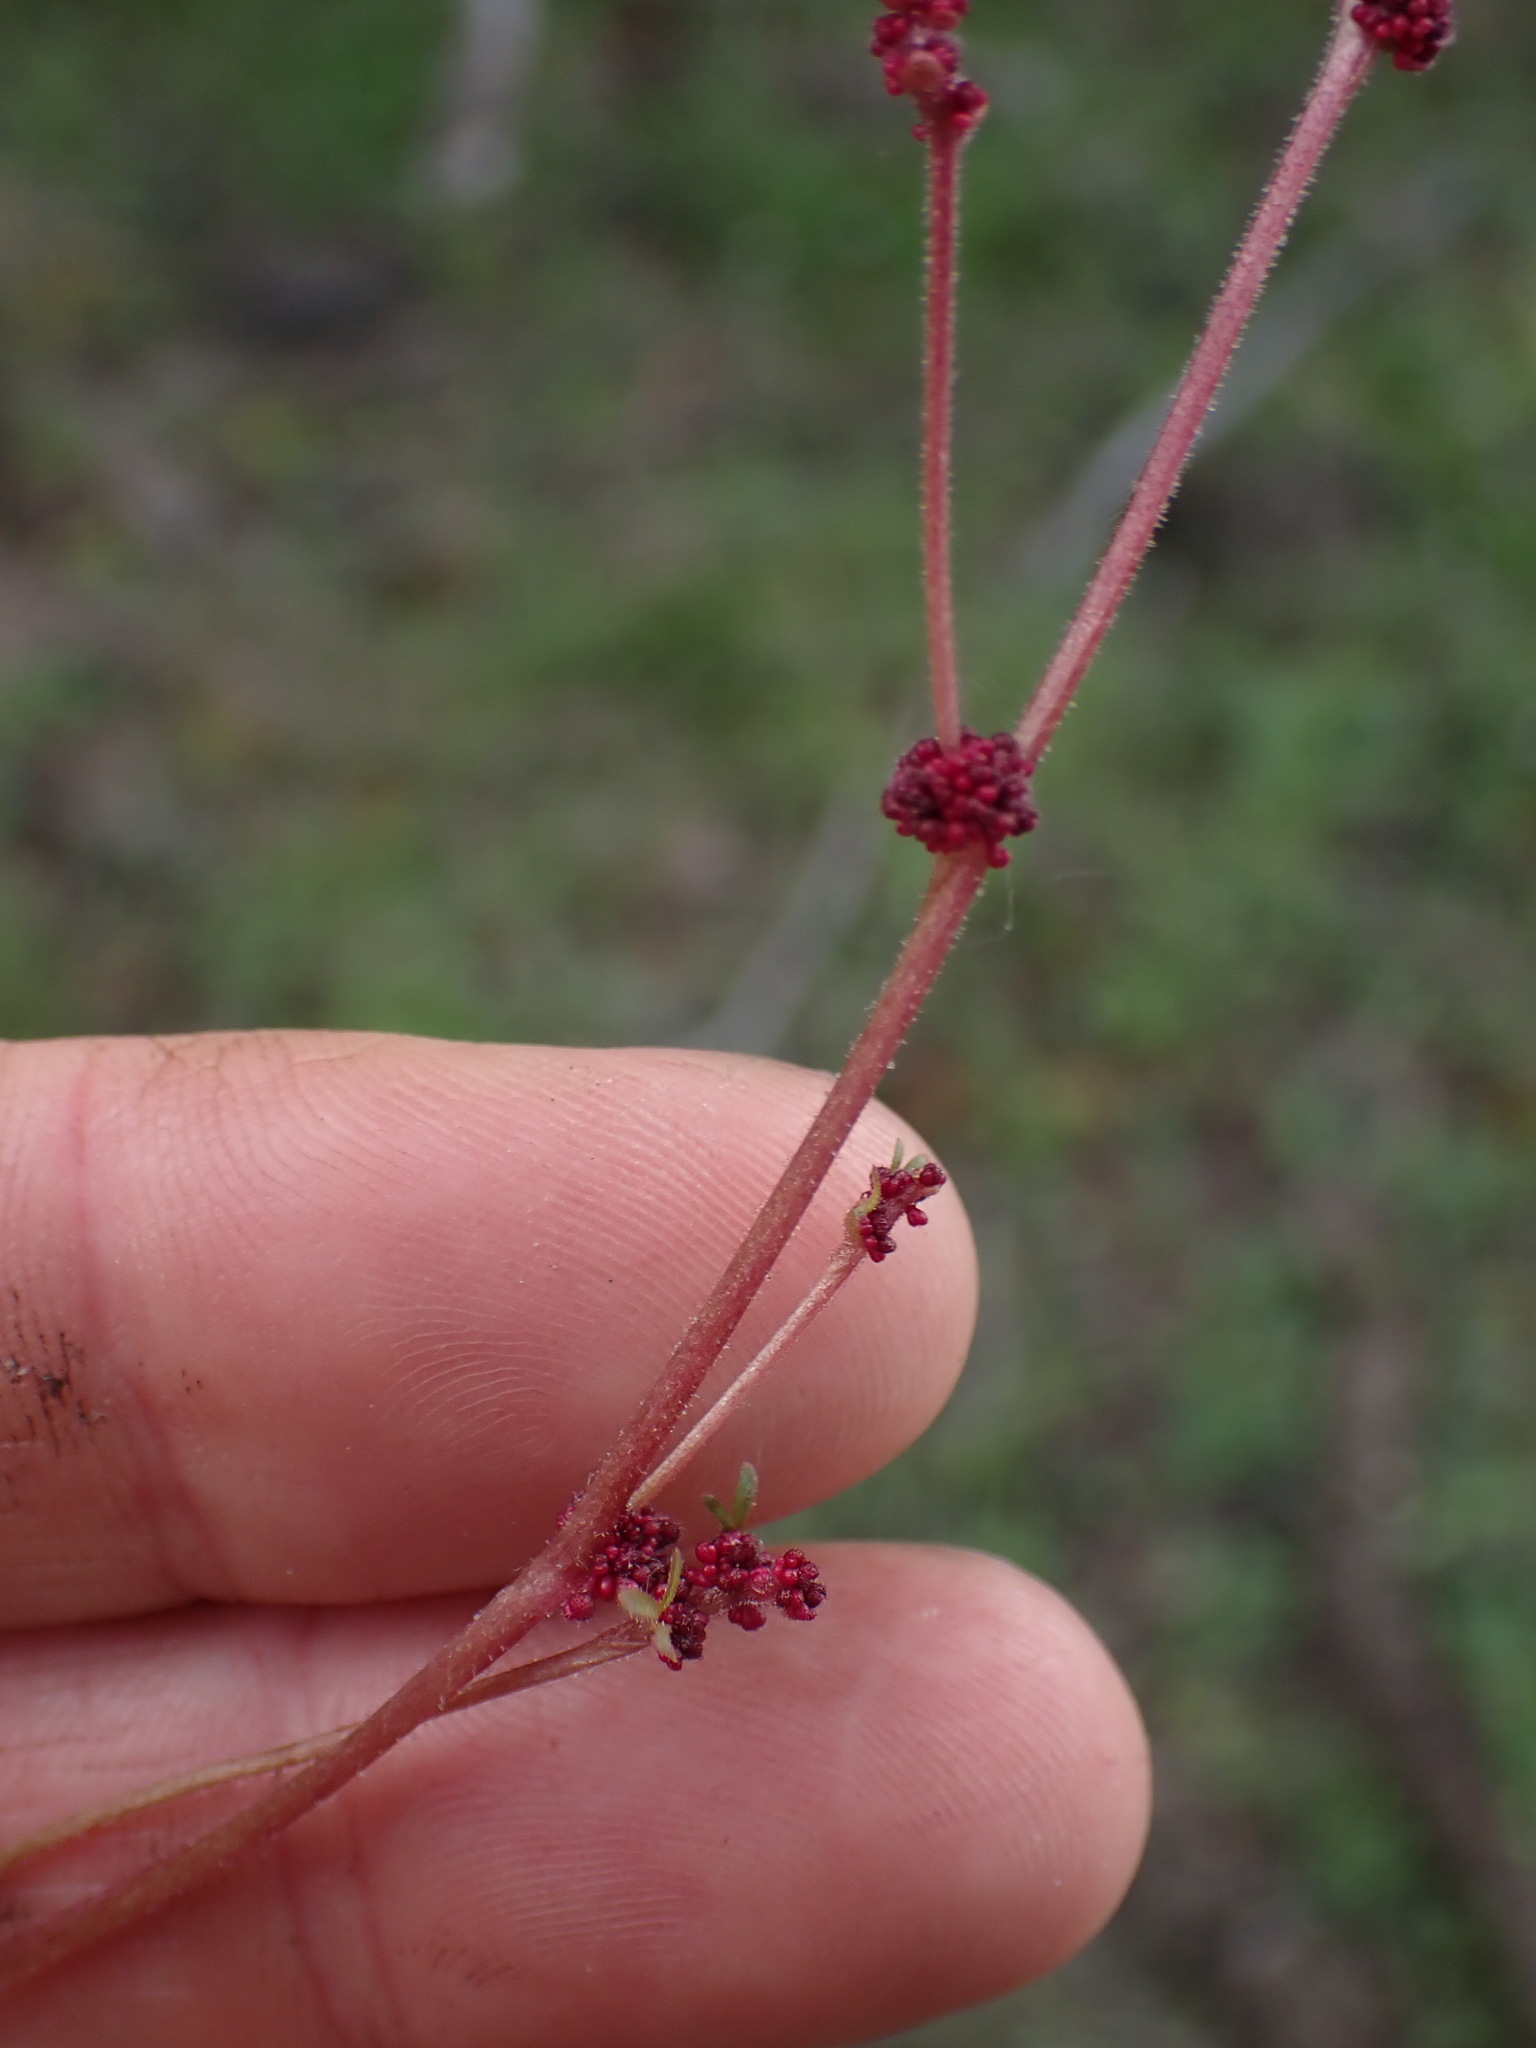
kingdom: Plantae
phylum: Tracheophyta
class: Magnoliopsida
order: Saxifragales
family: Saxifragaceae
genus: Lithophragma
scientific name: Lithophragma glabrum
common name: Bulbous prairie-star
